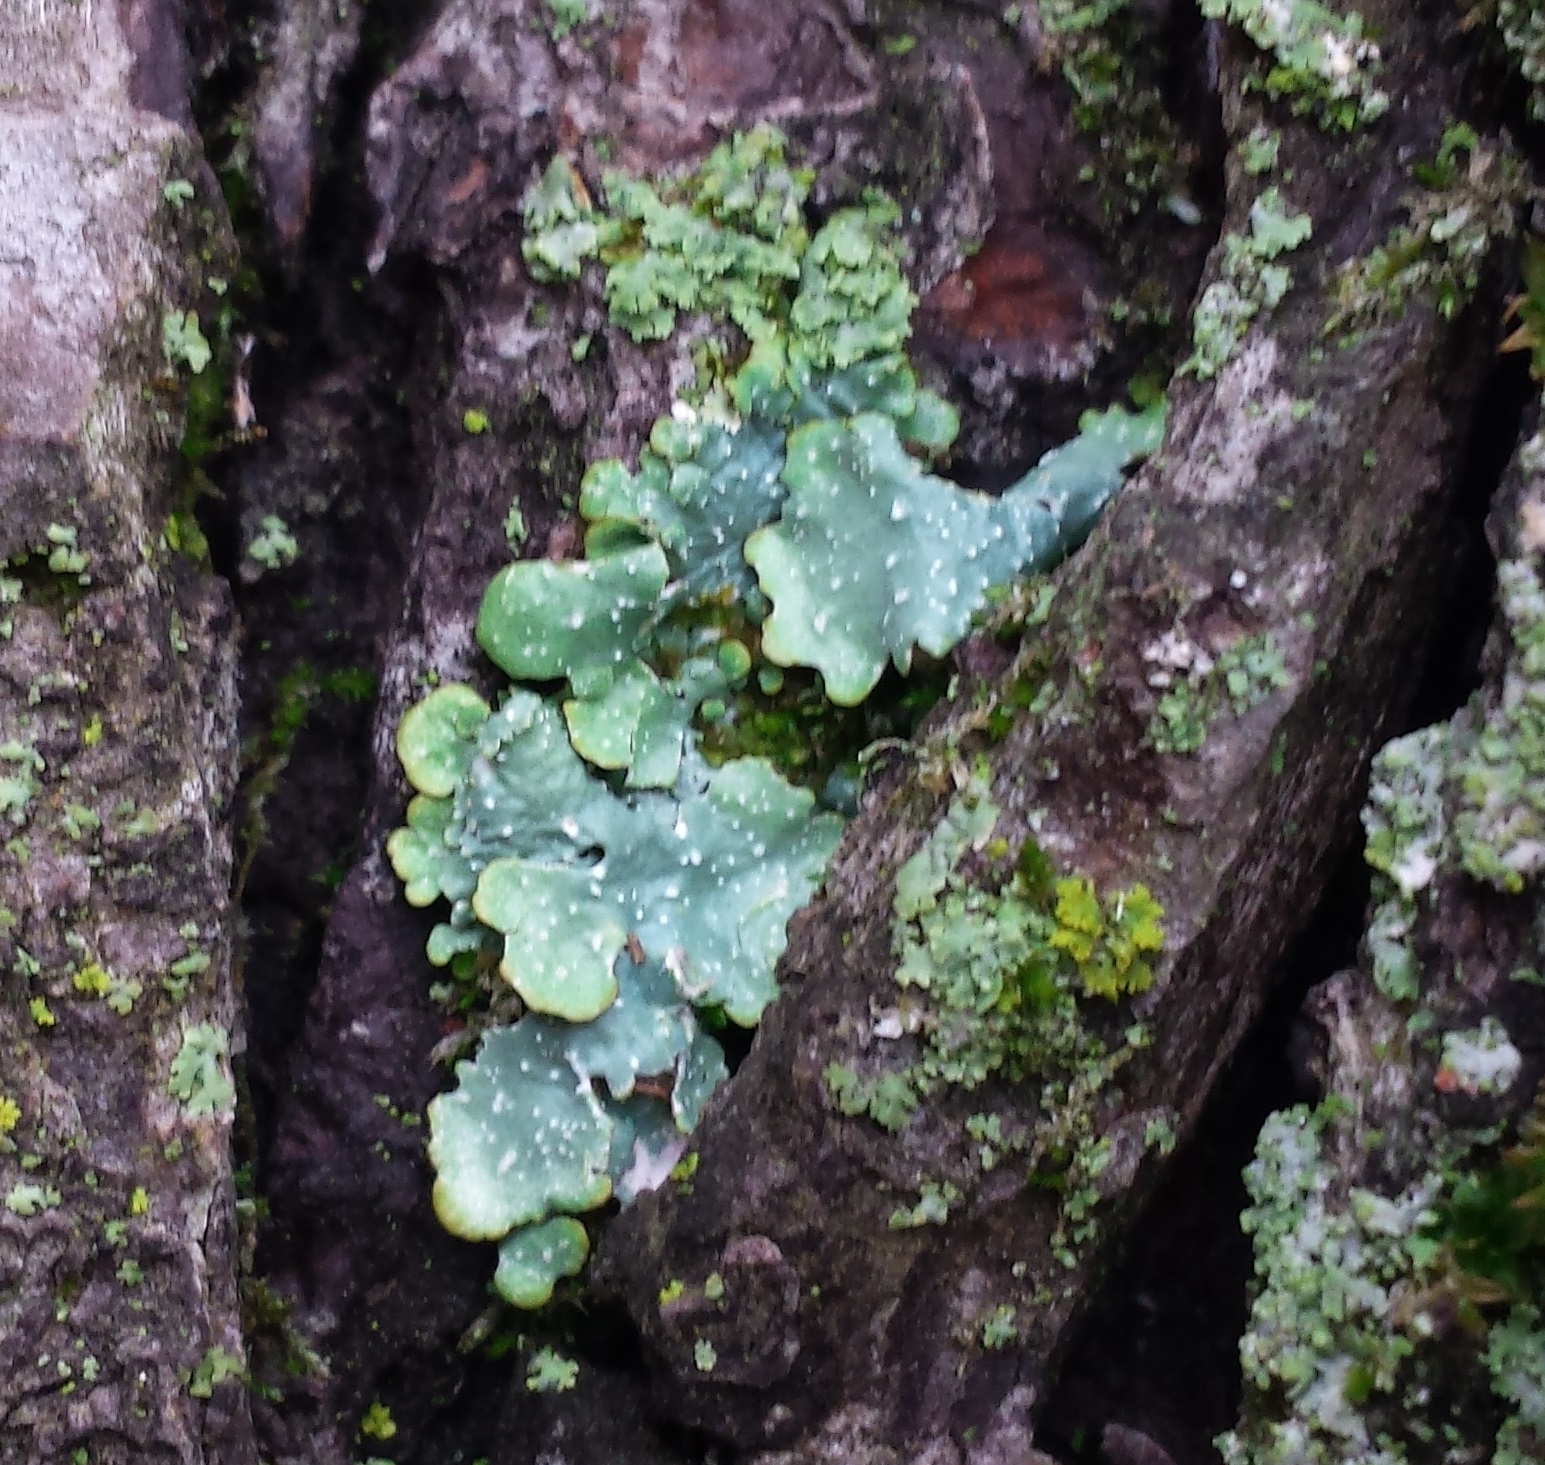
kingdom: Fungi
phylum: Ascomycota
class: Lecanoromycetes
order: Lecanorales
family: Parmeliaceae
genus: Punctelia
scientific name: Punctelia rudecta
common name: Rough speckled shield lichen
